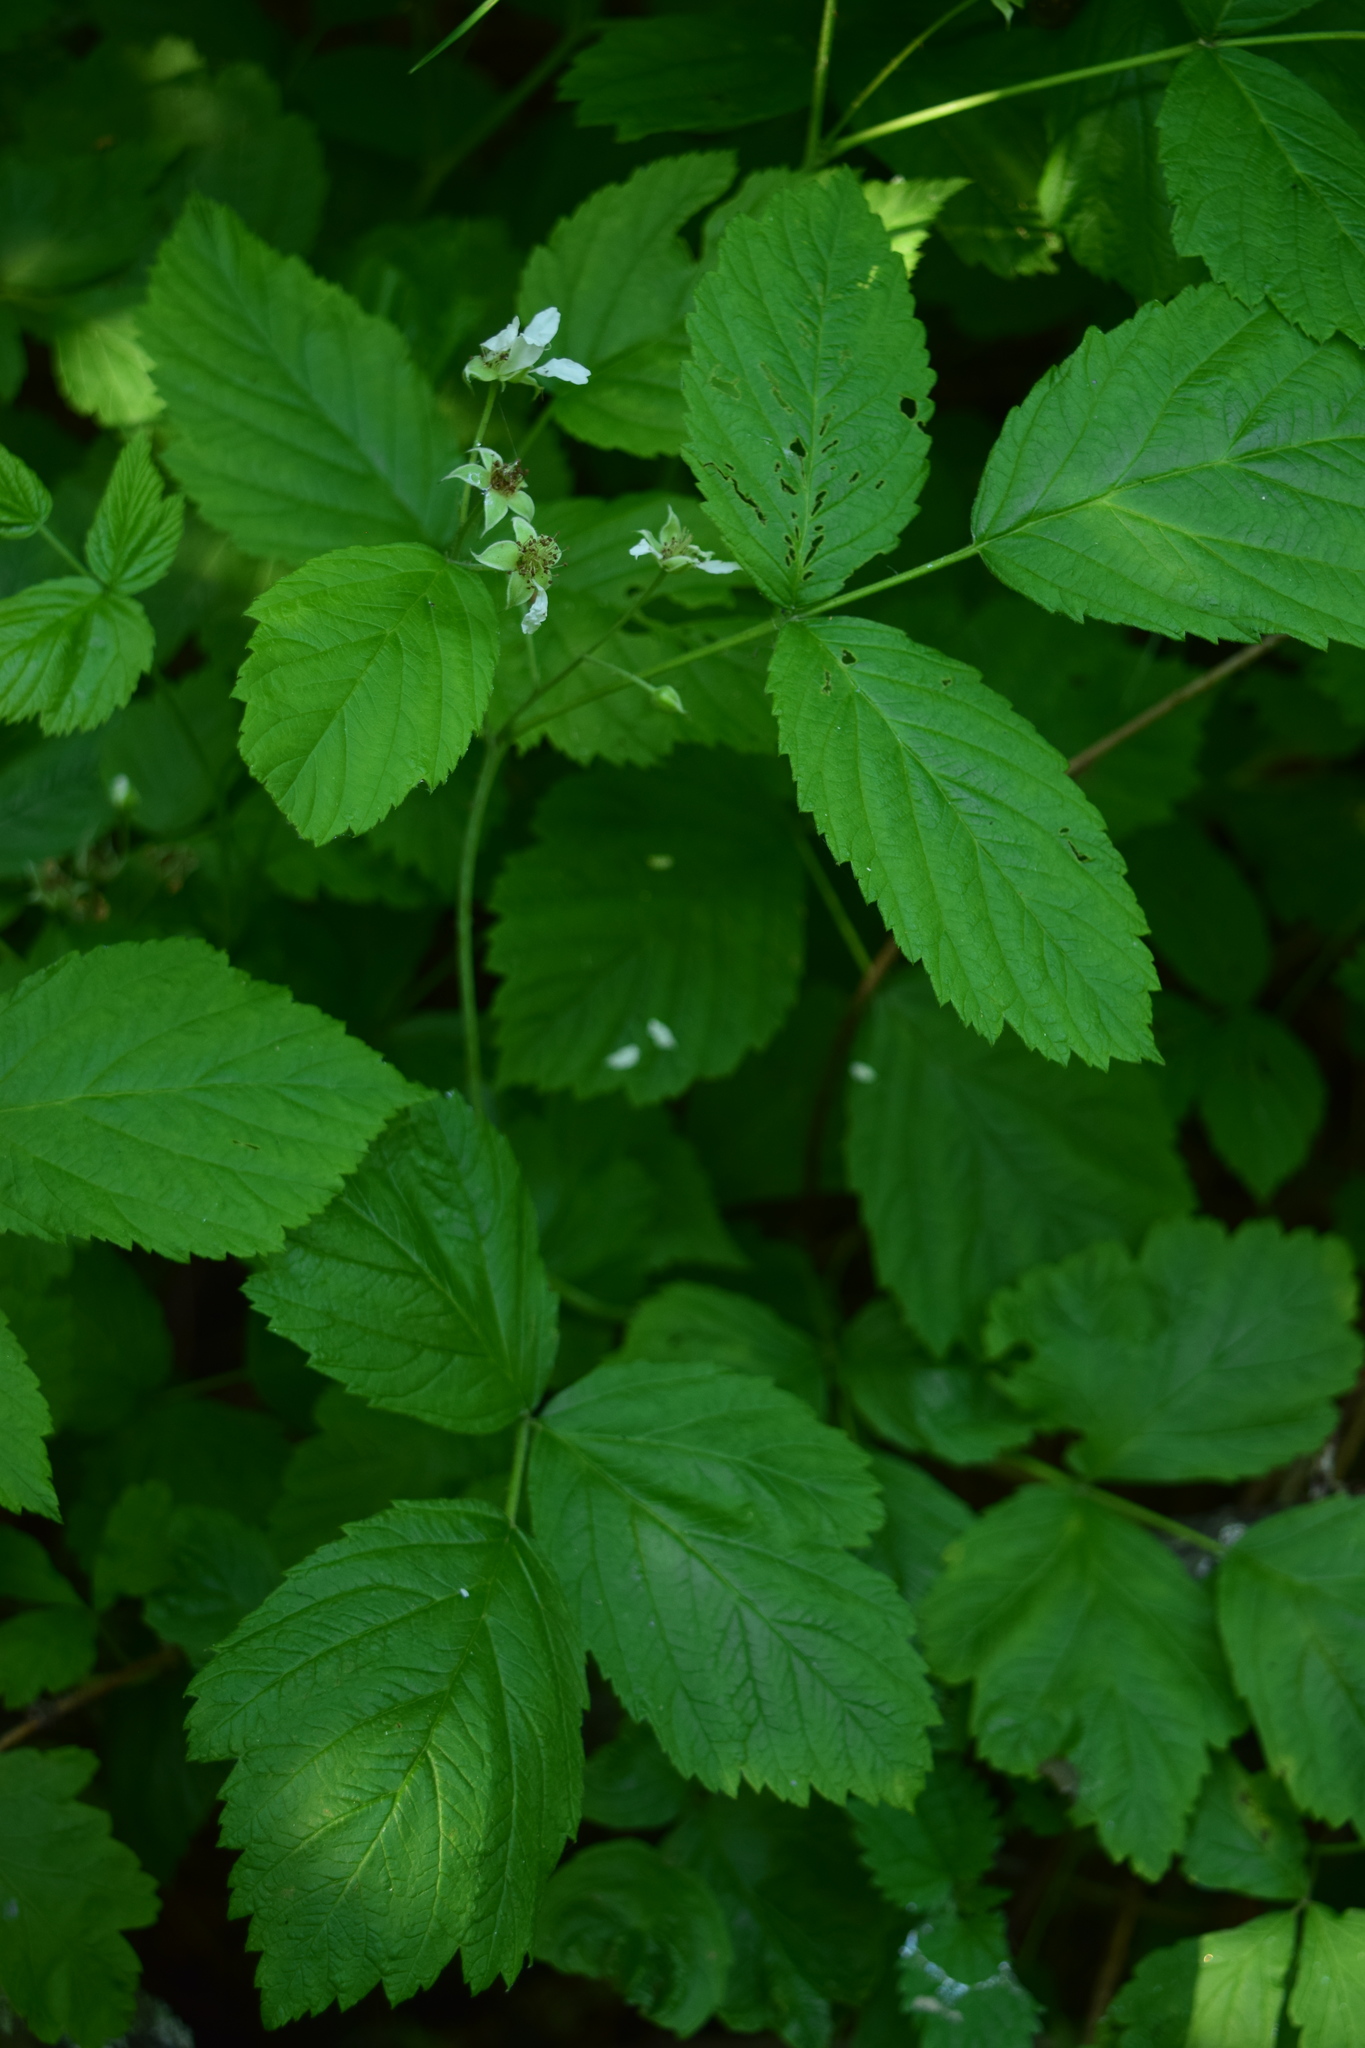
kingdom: Plantae
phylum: Tracheophyta
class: Magnoliopsida
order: Rosales
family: Rosaceae
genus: Rubus
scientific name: Rubus caesius
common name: Dewberry
